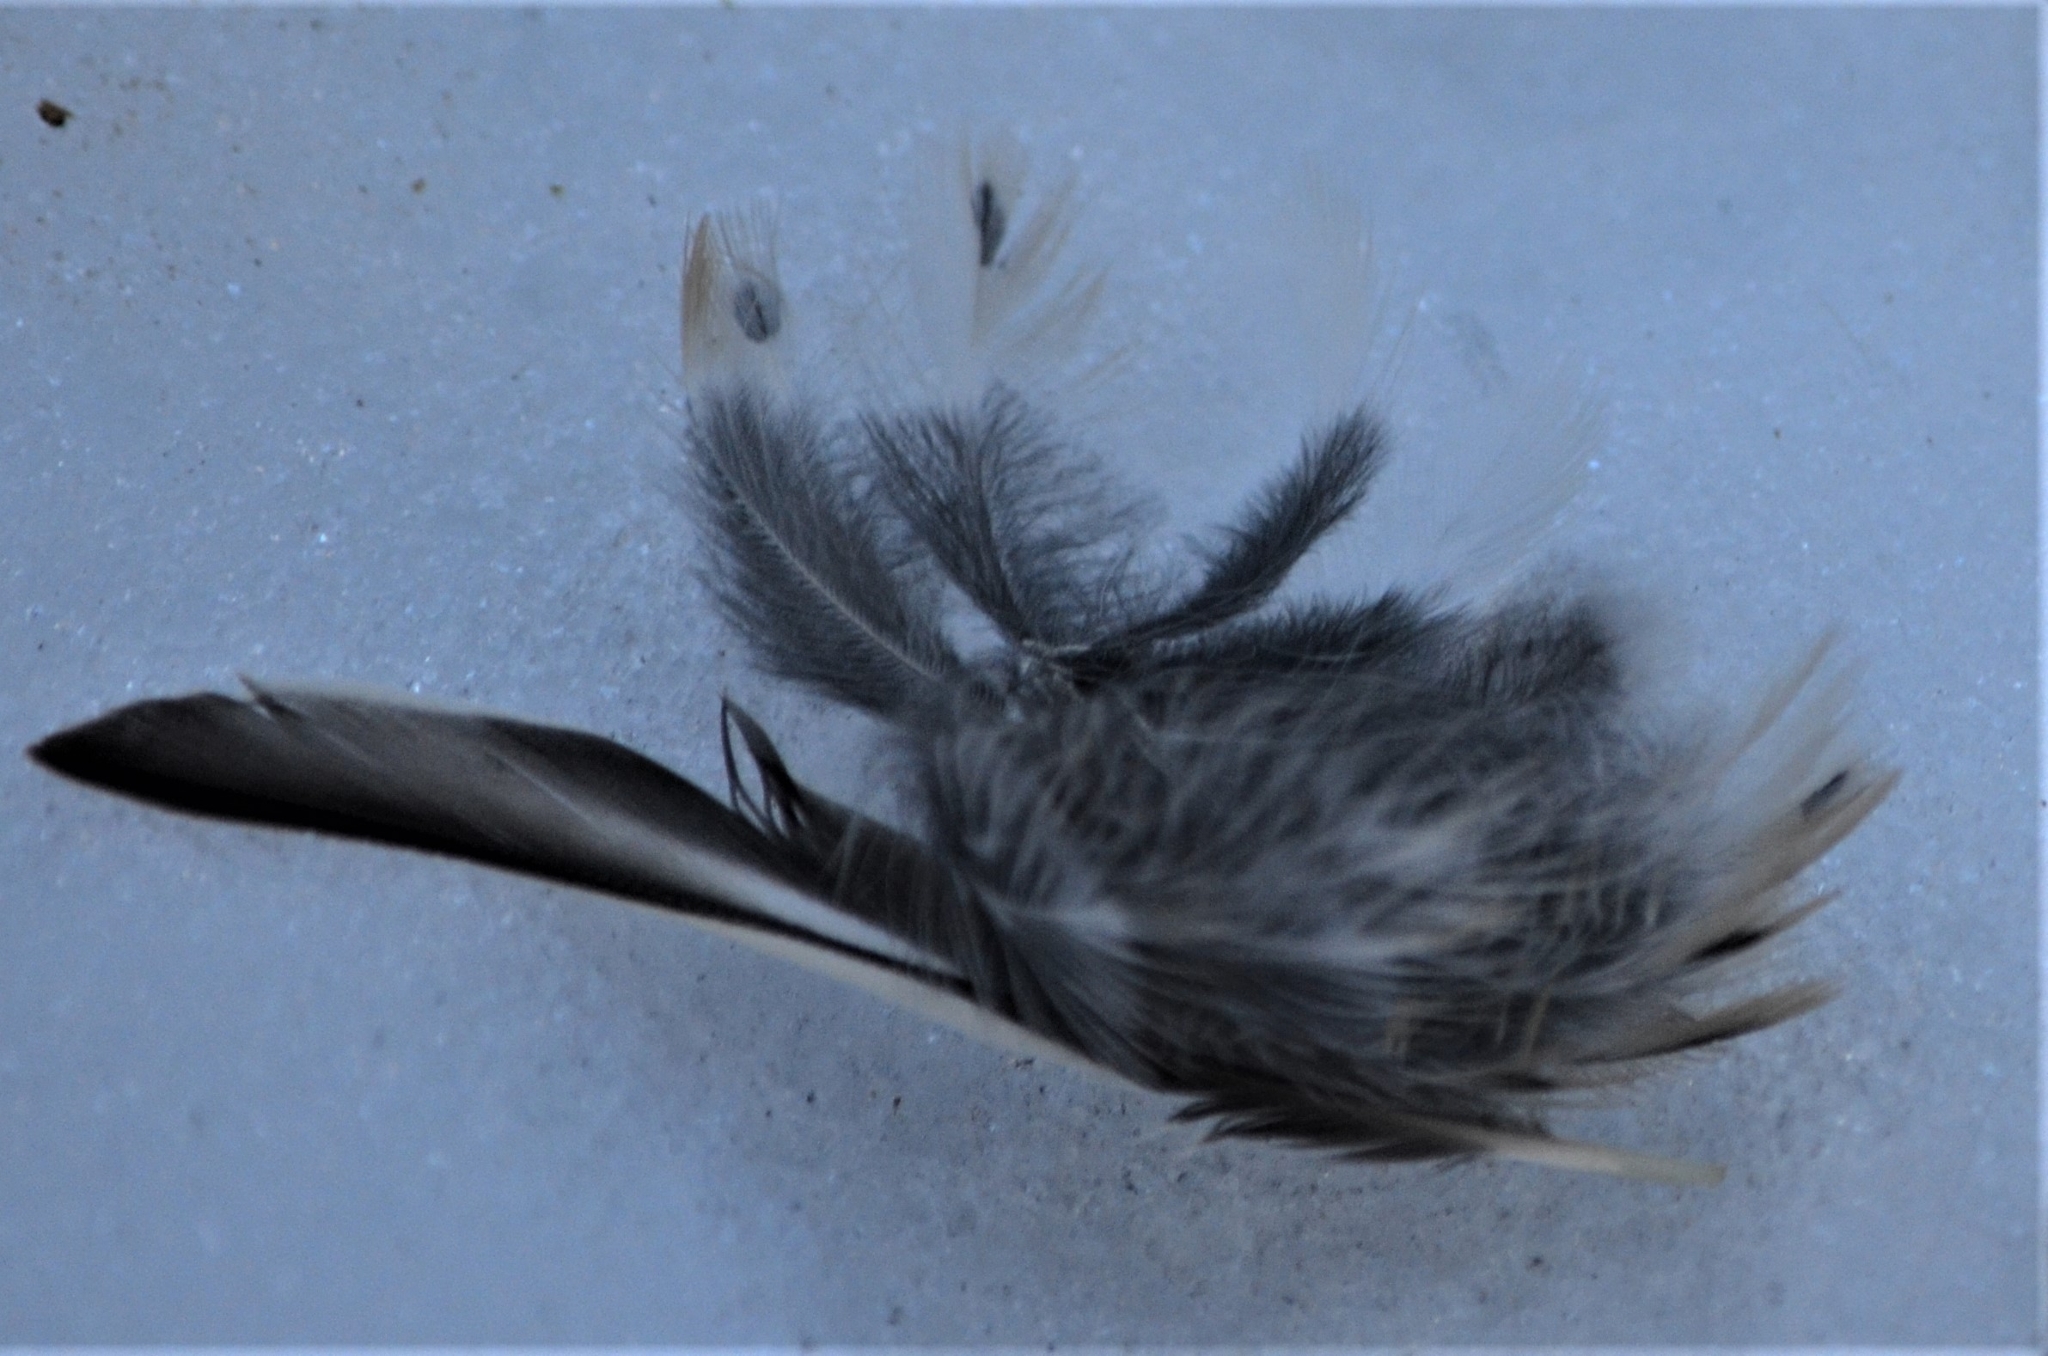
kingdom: Animalia
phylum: Chordata
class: Aves
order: Passeriformes
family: Fringillidae
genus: Fringilla
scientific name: Fringilla montifringilla
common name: Brambling
